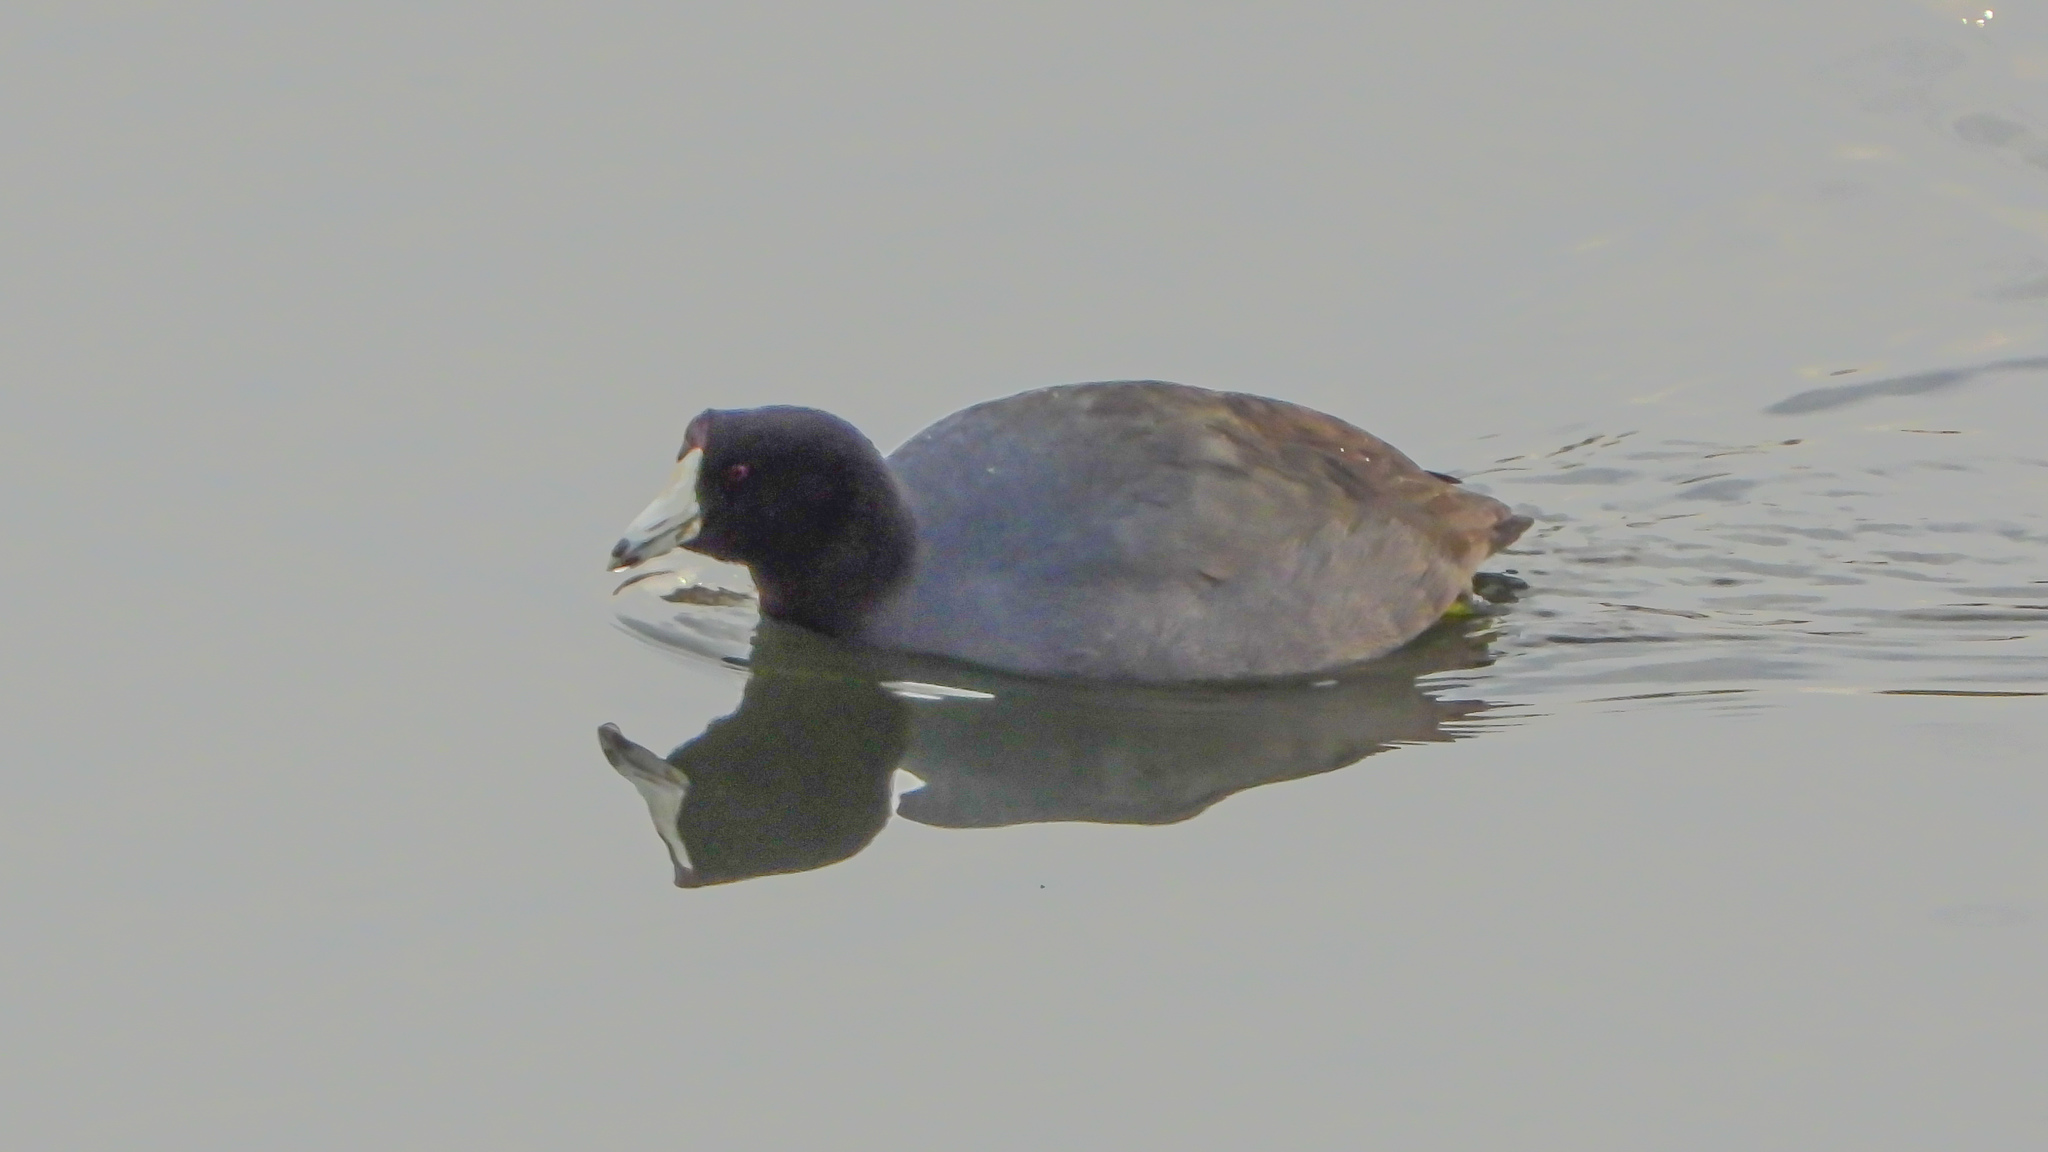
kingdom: Animalia
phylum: Chordata
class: Aves
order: Gruiformes
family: Rallidae
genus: Fulica
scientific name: Fulica americana
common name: American coot
